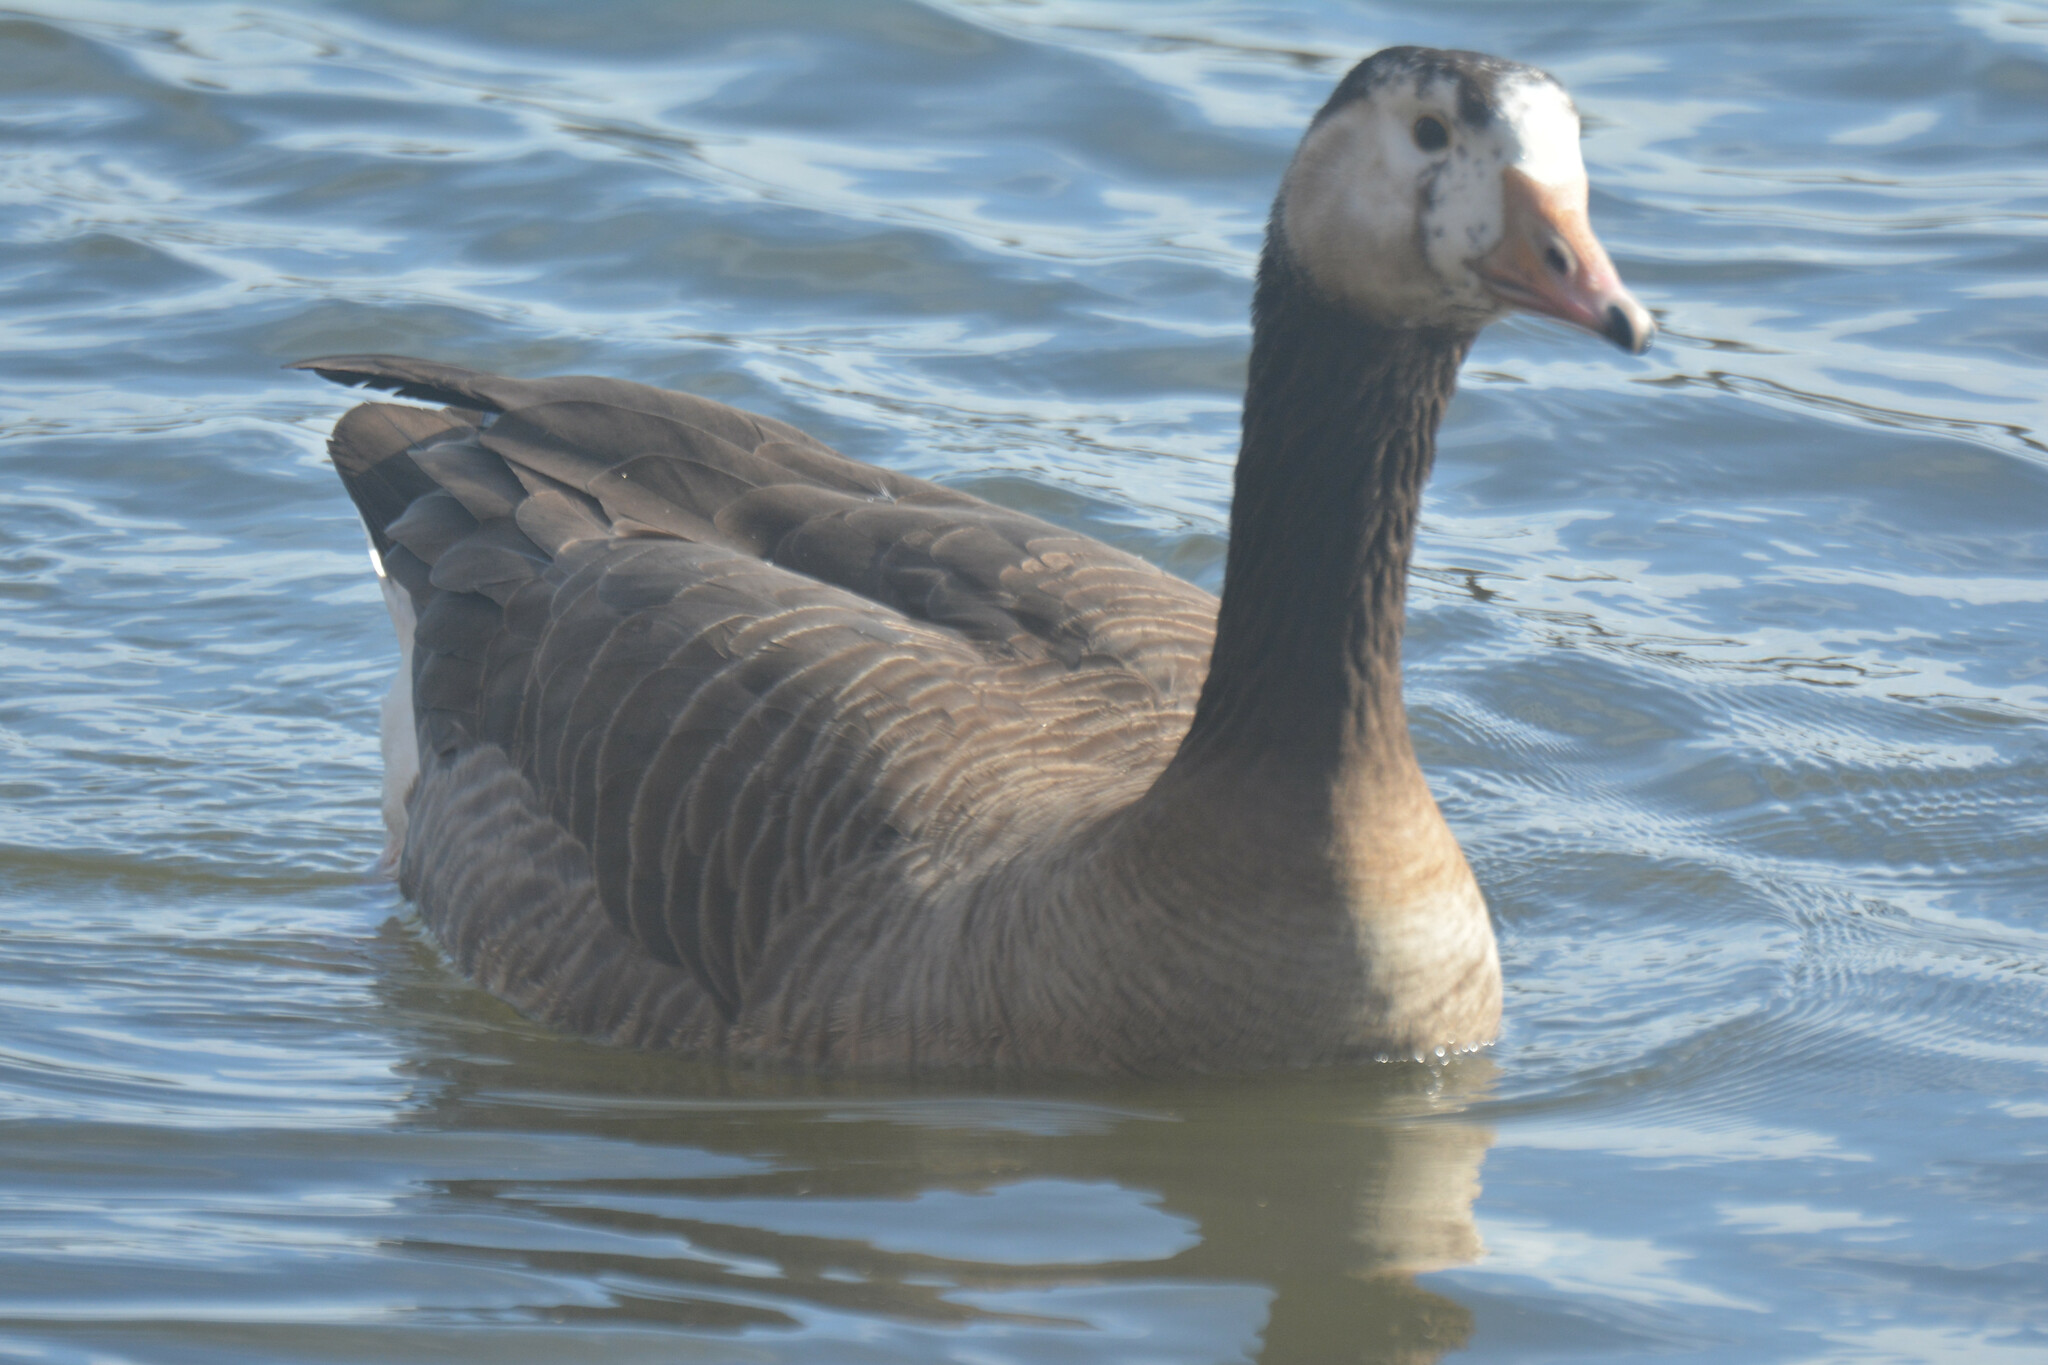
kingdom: Animalia
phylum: Chordata
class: Aves
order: Anseriformes
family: Anatidae
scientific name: Anatidae
